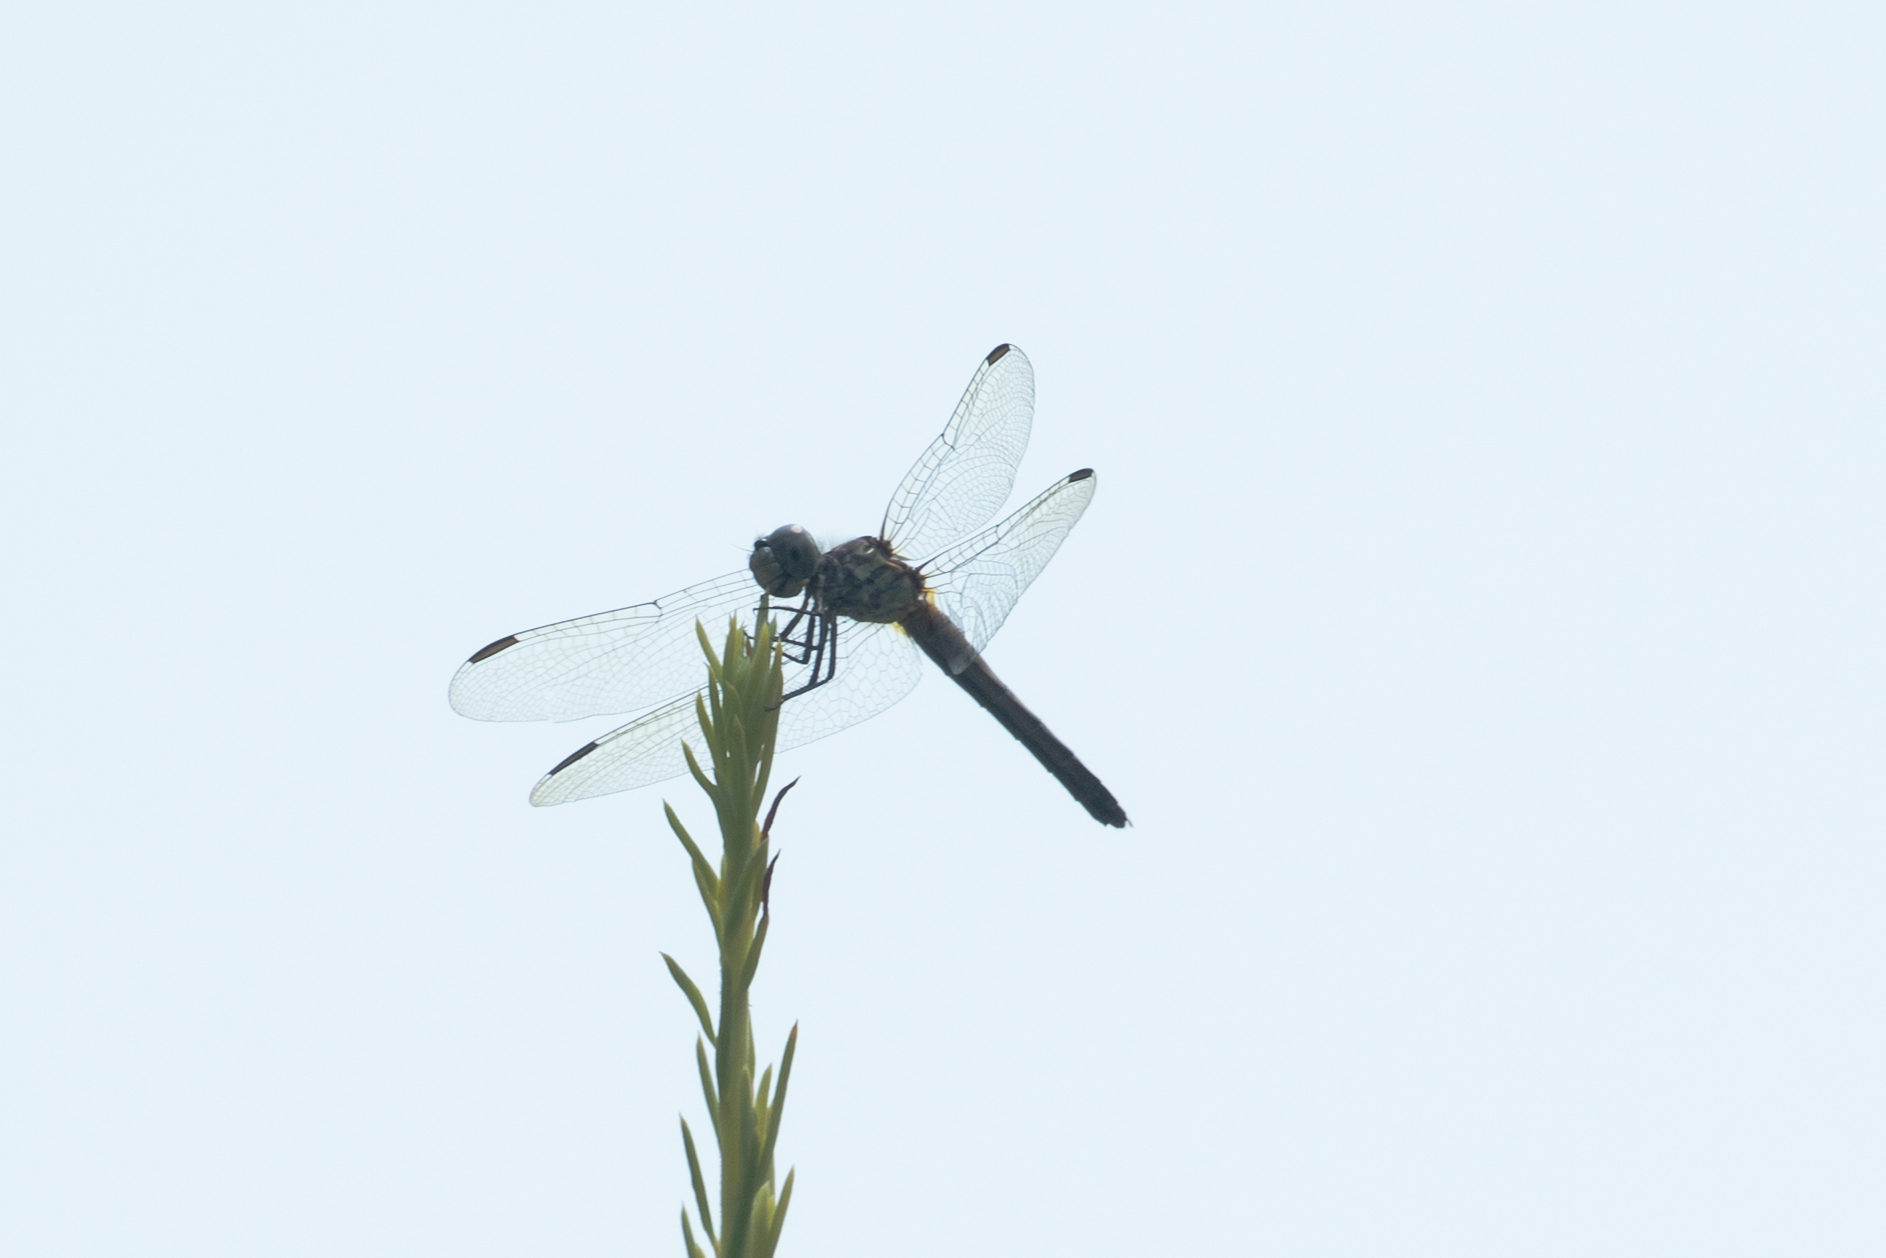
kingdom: Animalia
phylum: Arthropoda
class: Insecta
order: Odonata
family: Libellulidae
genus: Pachydiplax
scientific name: Pachydiplax longipennis
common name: Blue dasher
